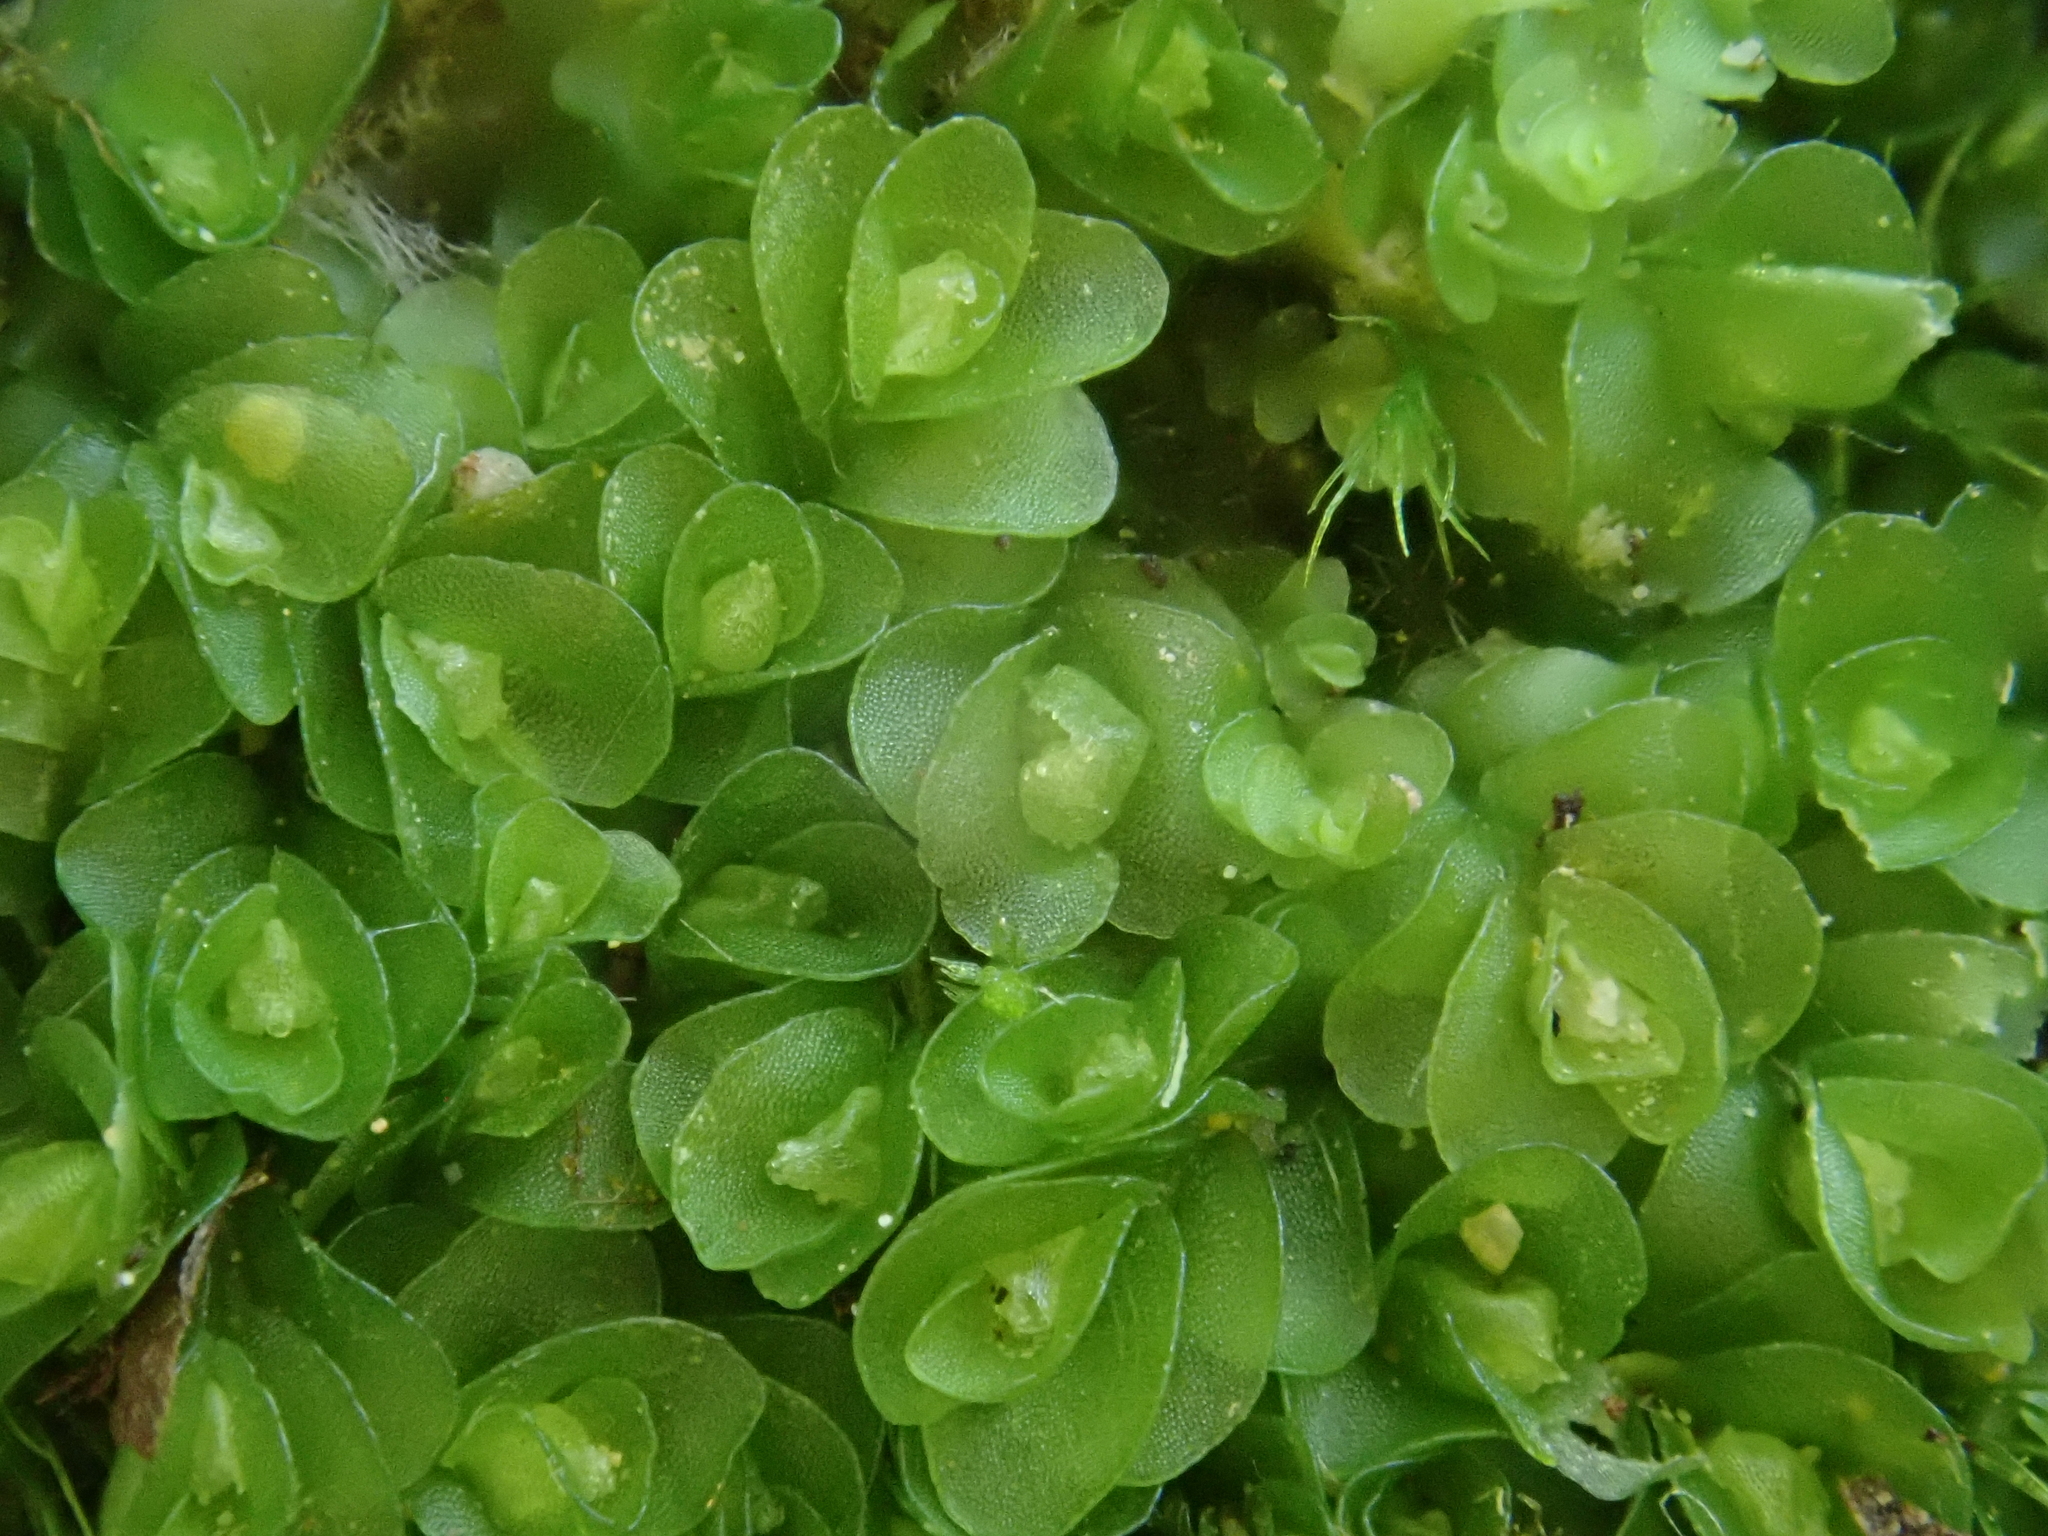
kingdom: Plantae
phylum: Marchantiophyta
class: Jungermanniopsida
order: Jungermanniales
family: Solenostomataceae
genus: Solenostoma
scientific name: Solenostoma gracillimum
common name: Crenulated flapwort
